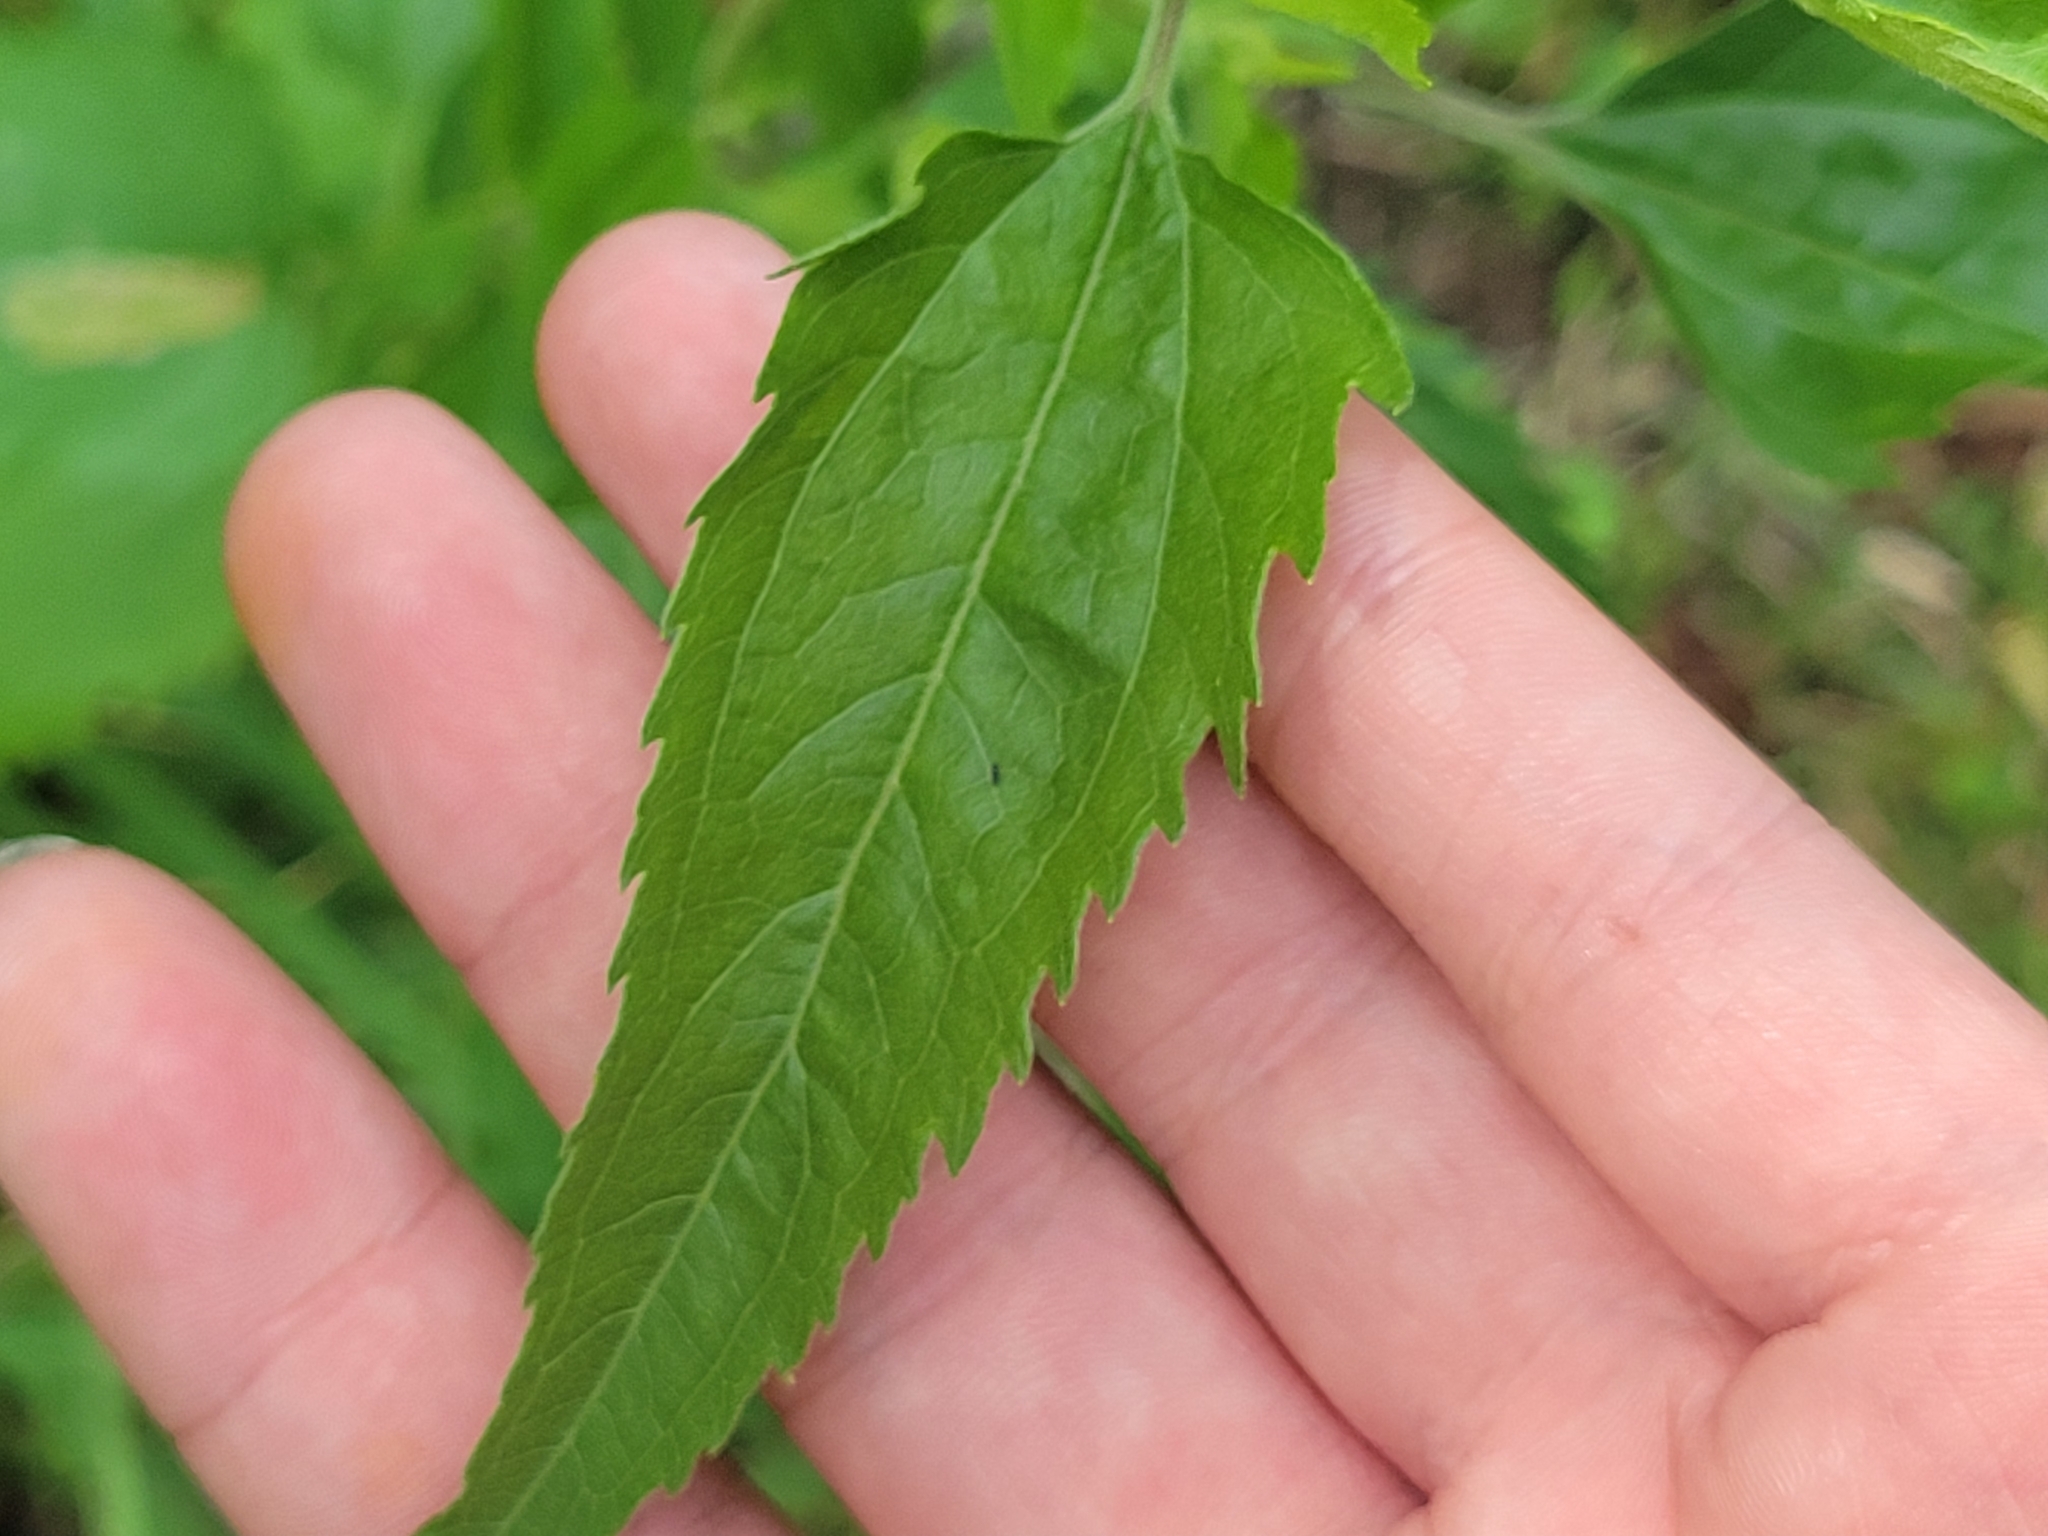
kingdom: Plantae
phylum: Tracheophyta
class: Magnoliopsida
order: Asterales
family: Asteraceae
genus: Eupatorium
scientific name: Eupatorium serotinum
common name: Late boneset
